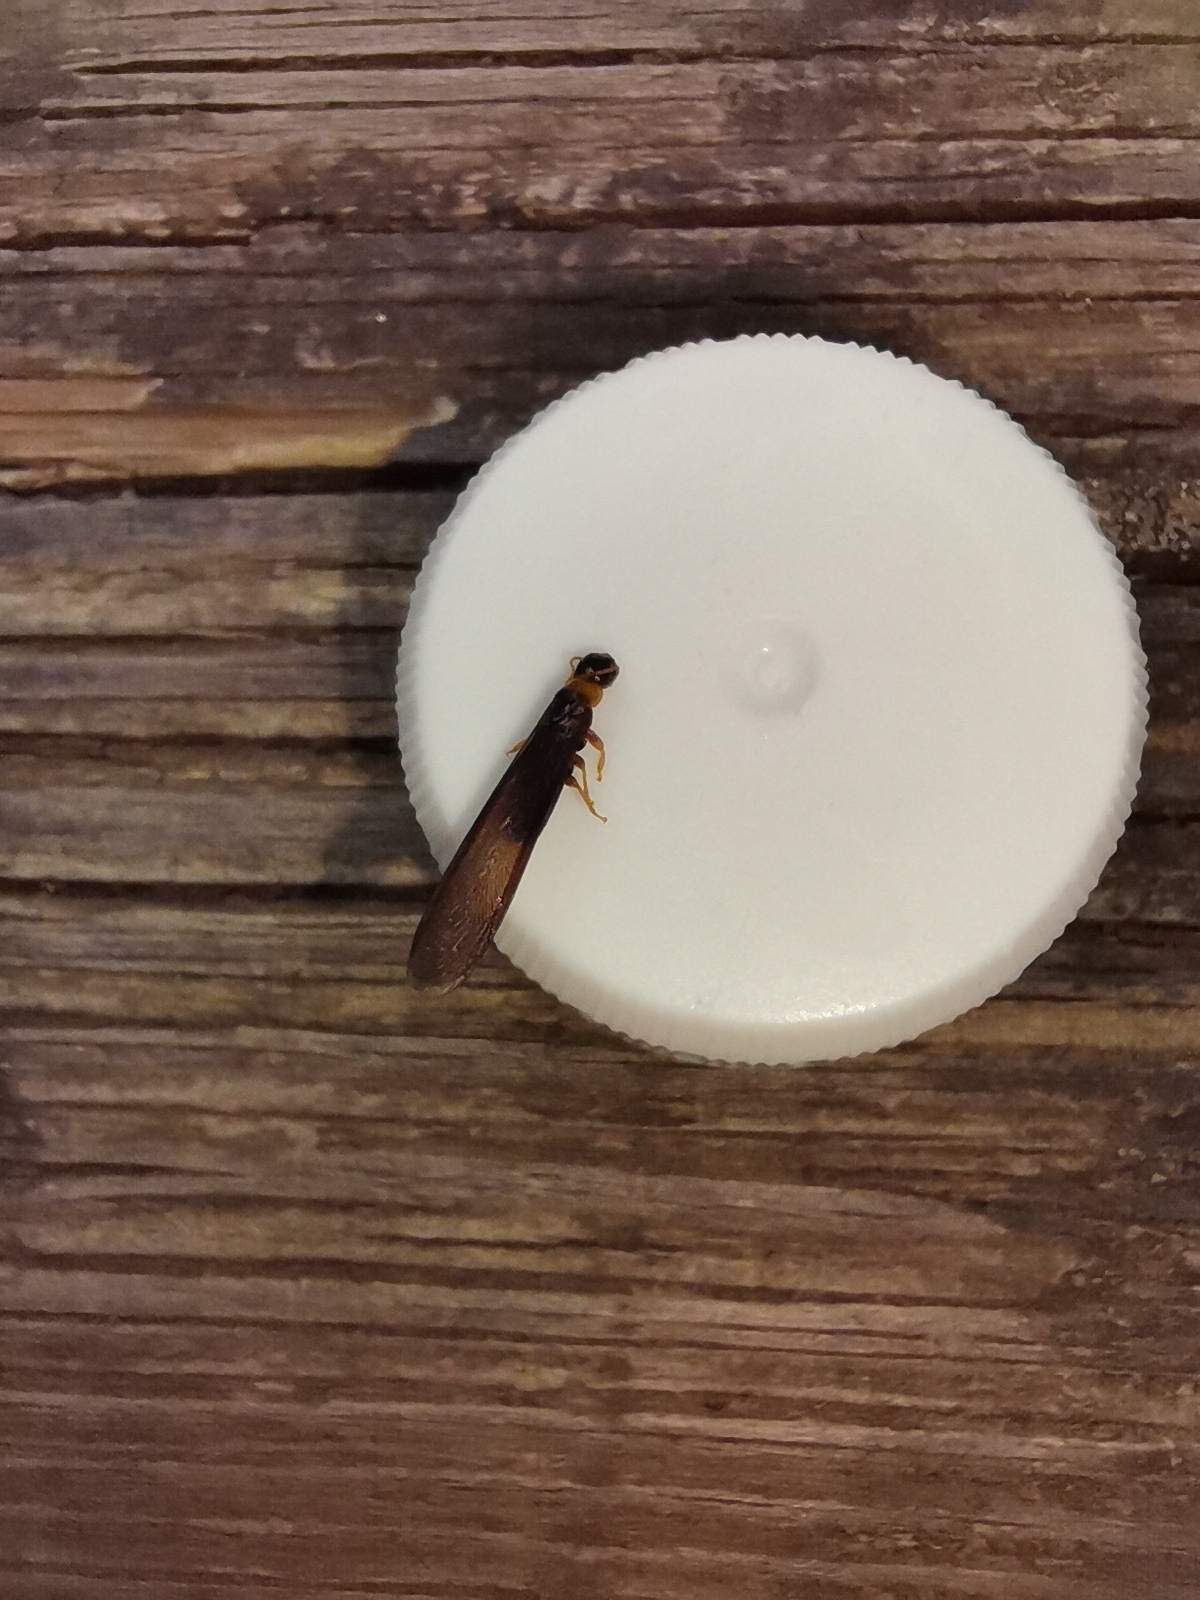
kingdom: Animalia
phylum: Arthropoda
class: Insecta
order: Blattodea
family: Kalotermitidae
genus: Kalotermes
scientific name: Kalotermes flavicollis
